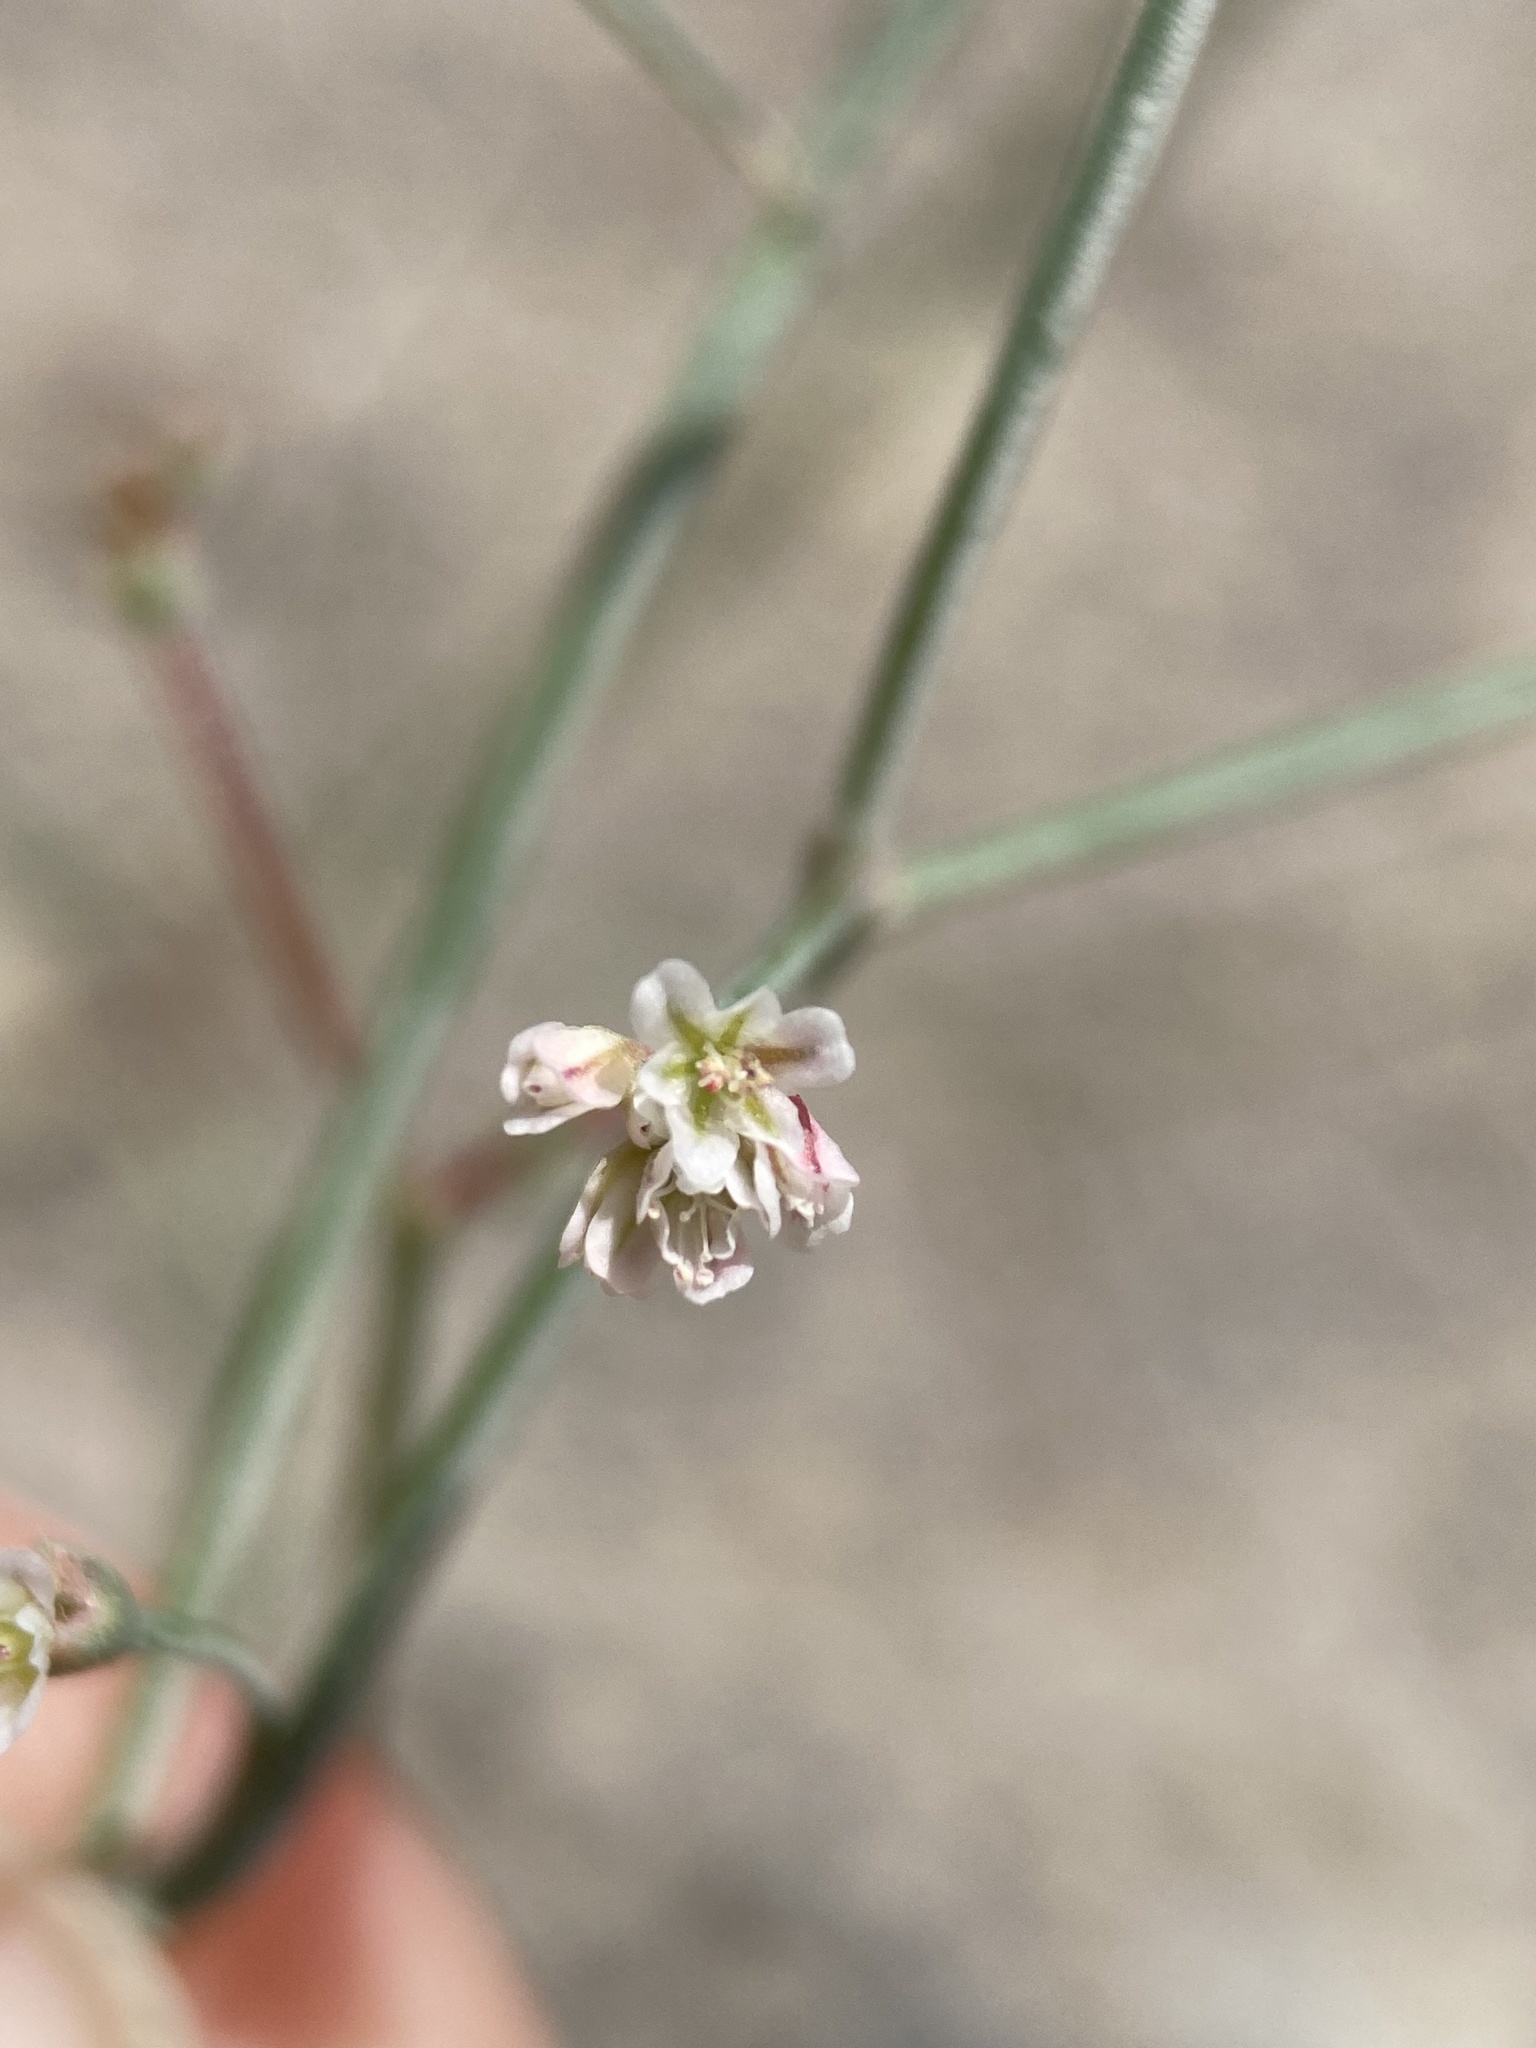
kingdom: Plantae
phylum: Tracheophyta
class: Magnoliopsida
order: Caryophyllales
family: Polygonaceae
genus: Eriogonum
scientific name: Eriogonum nutans
